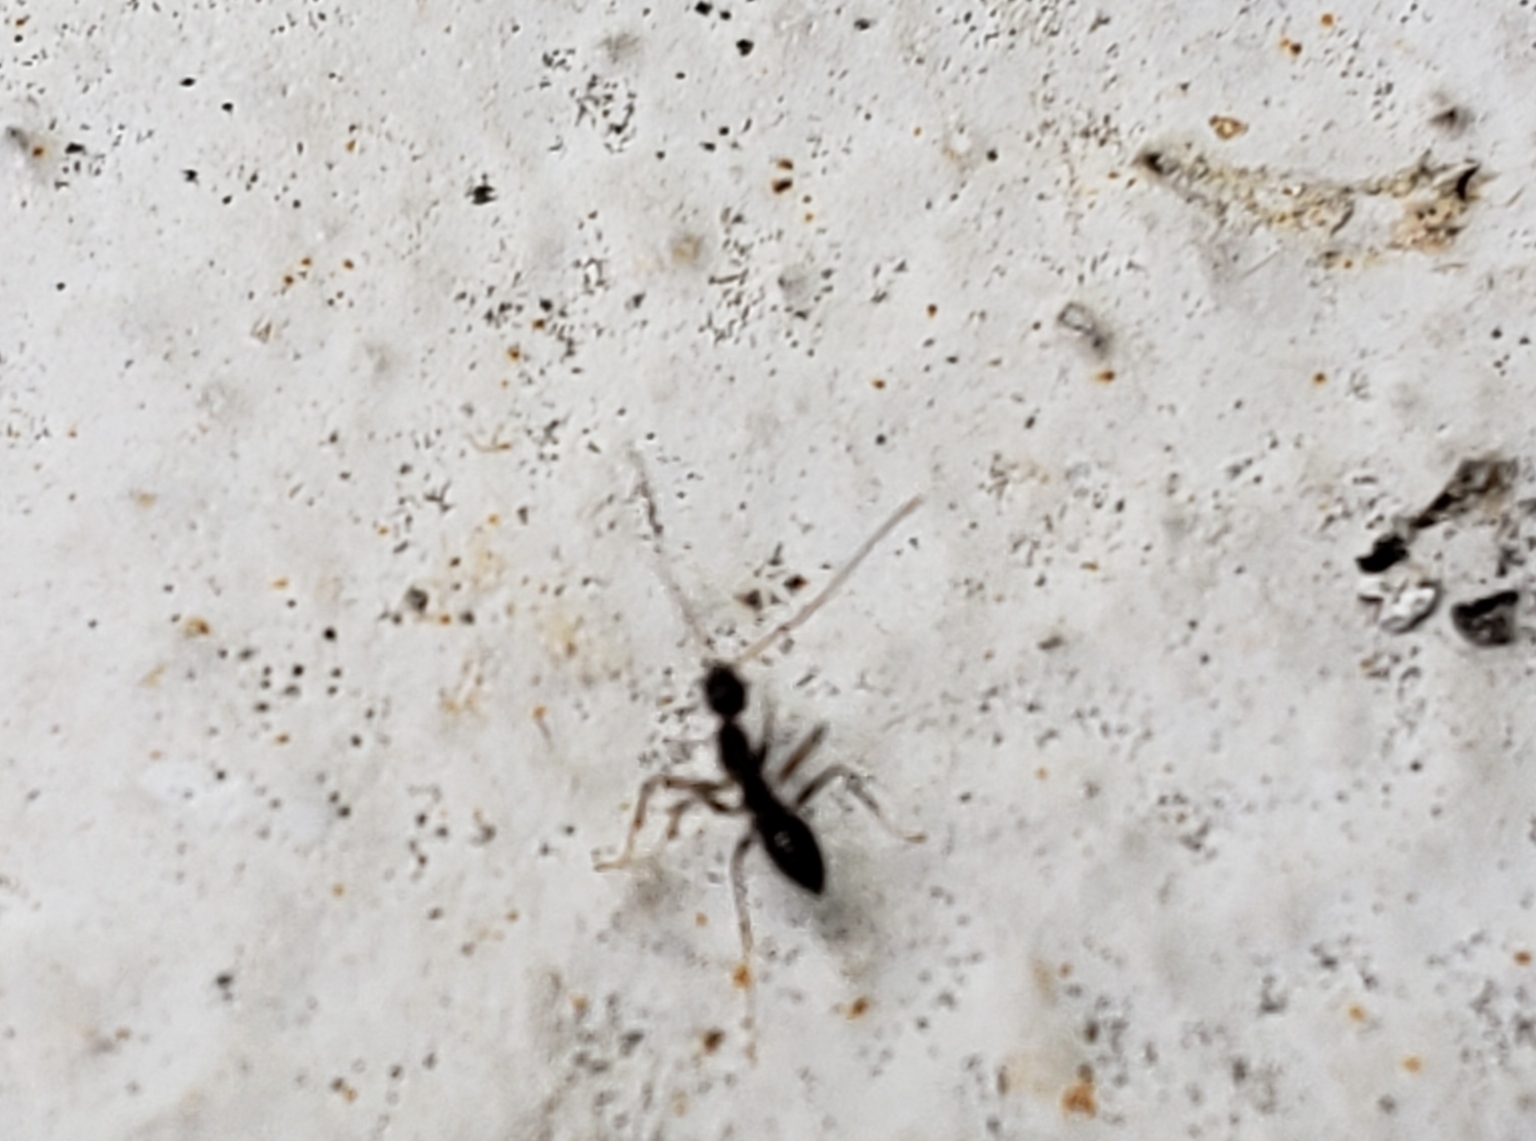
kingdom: Animalia
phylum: Arthropoda
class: Insecta
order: Hymenoptera
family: Formicidae
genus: Paratrechina
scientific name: Paratrechina longicornis
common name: Longhorned crazy ant
